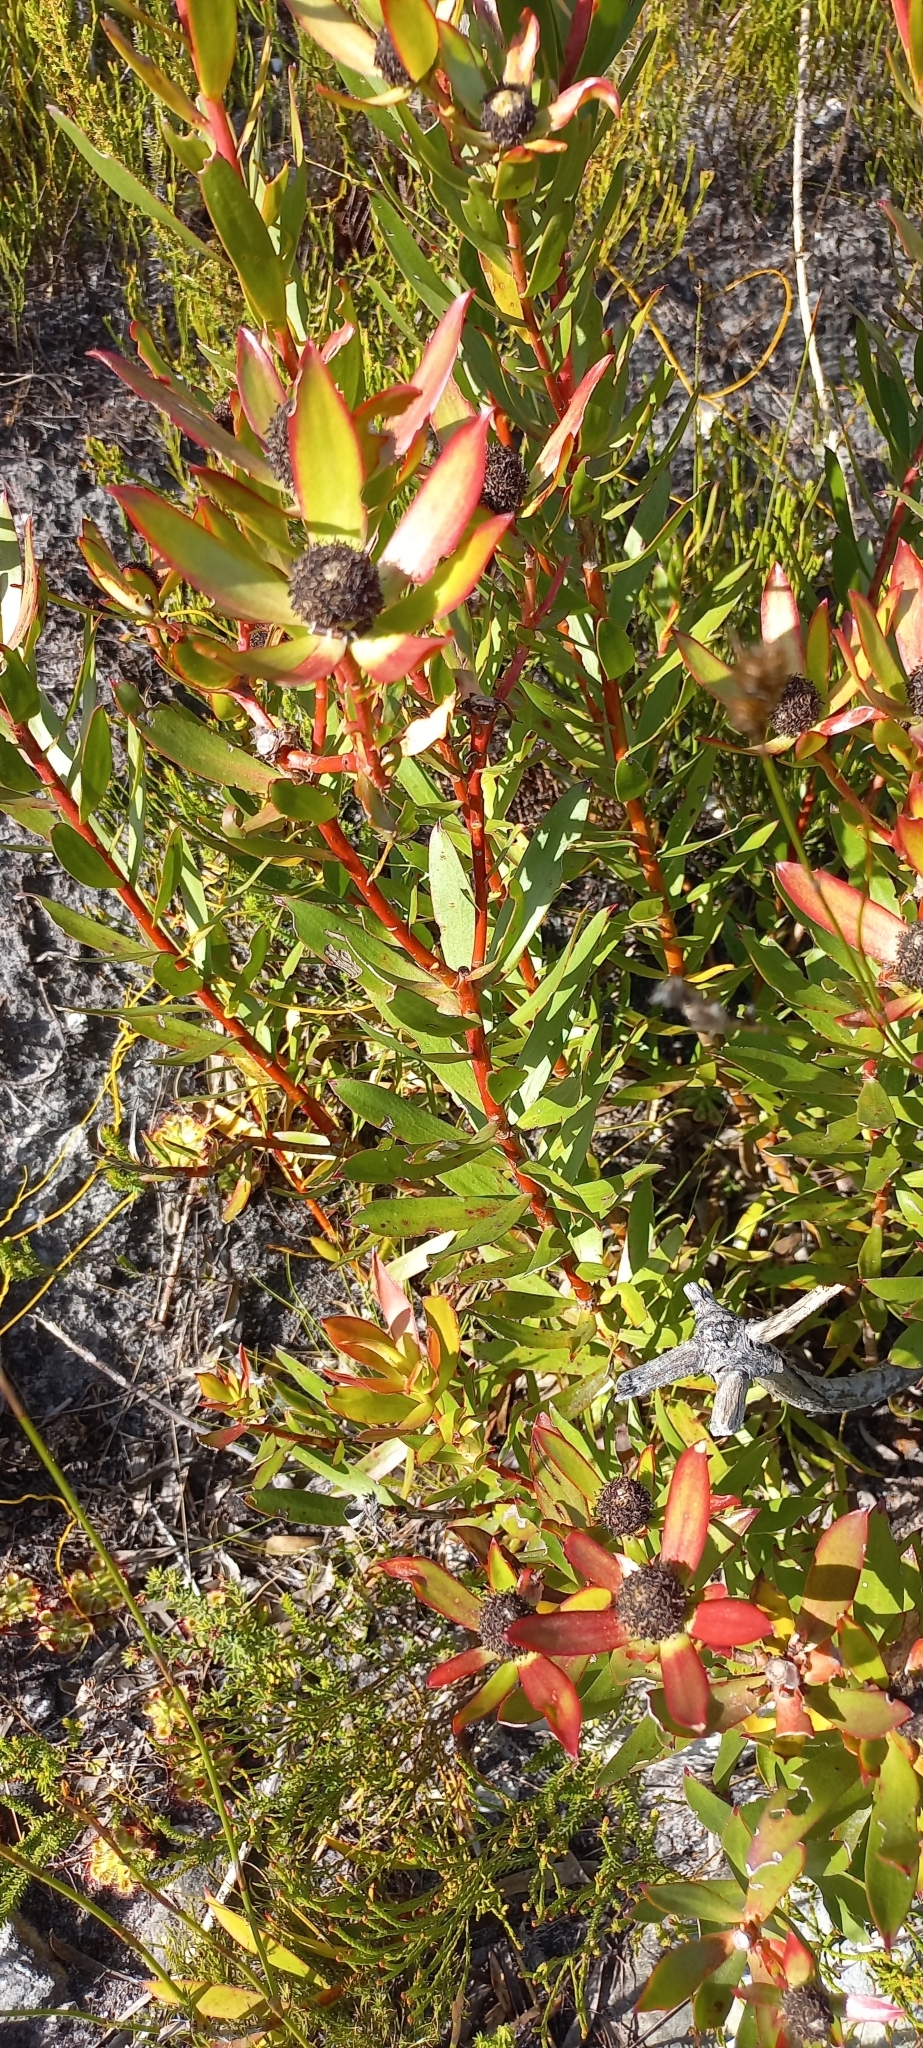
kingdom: Plantae
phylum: Tracheophyta
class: Magnoliopsida
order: Proteales
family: Proteaceae
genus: Leucadendron
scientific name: Leucadendron spissifolium
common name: Spear-leaf conebush
